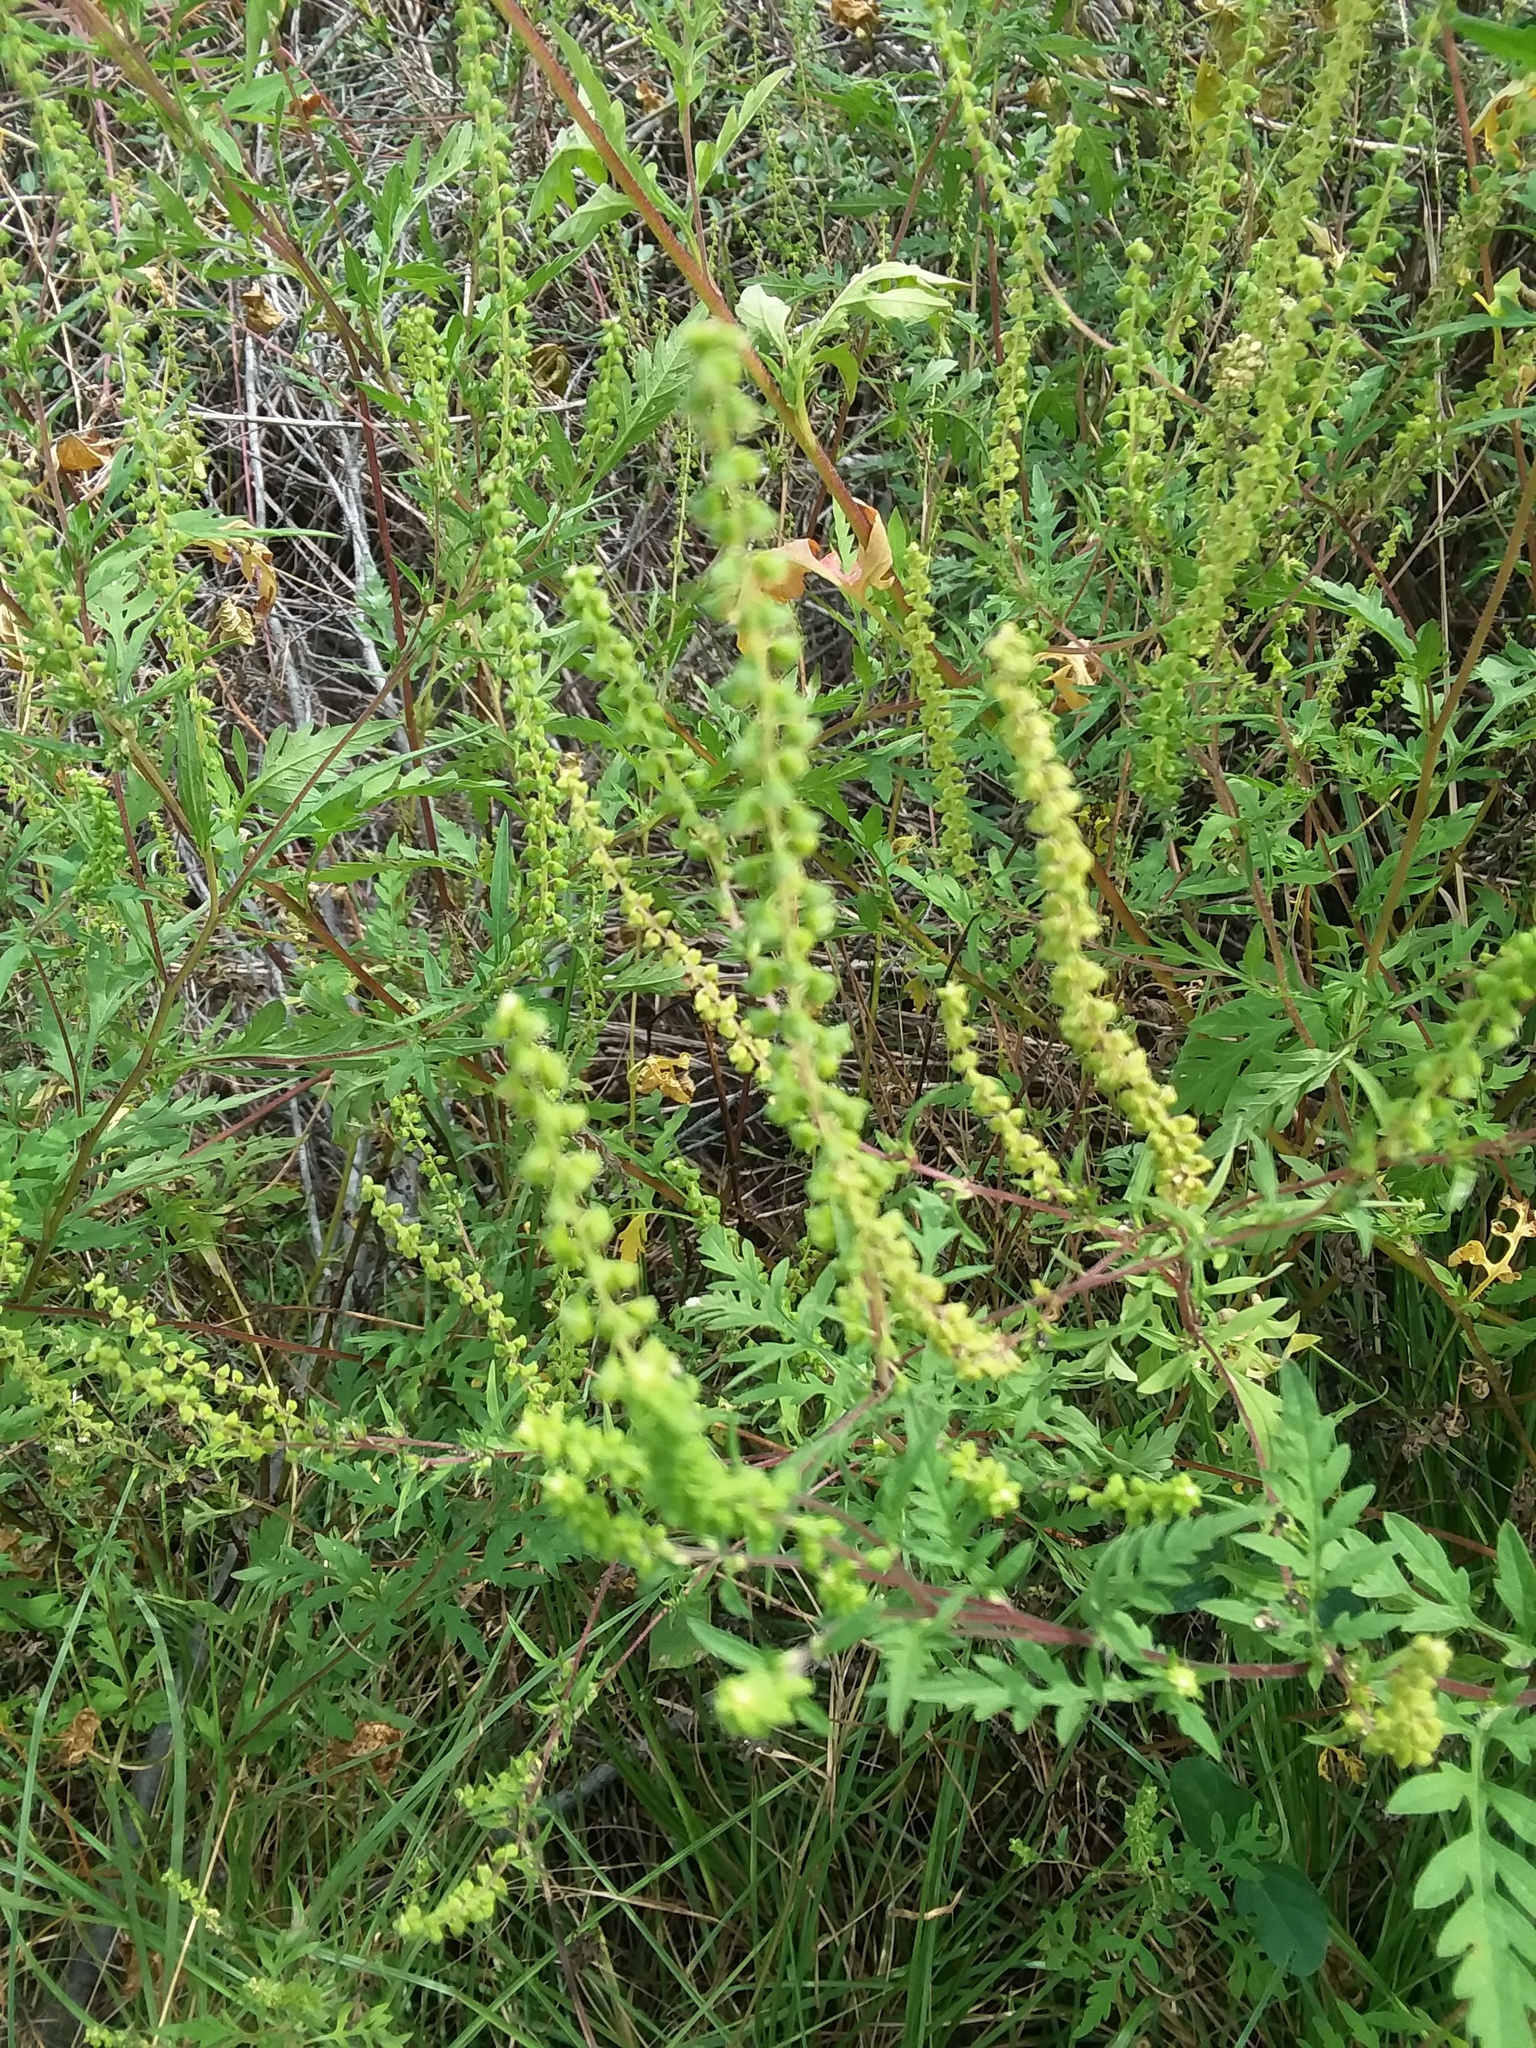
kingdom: Plantae
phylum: Tracheophyta
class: Magnoliopsida
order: Asterales
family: Asteraceae
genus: Ambrosia
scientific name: Ambrosia artemisiifolia
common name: Annual ragweed
